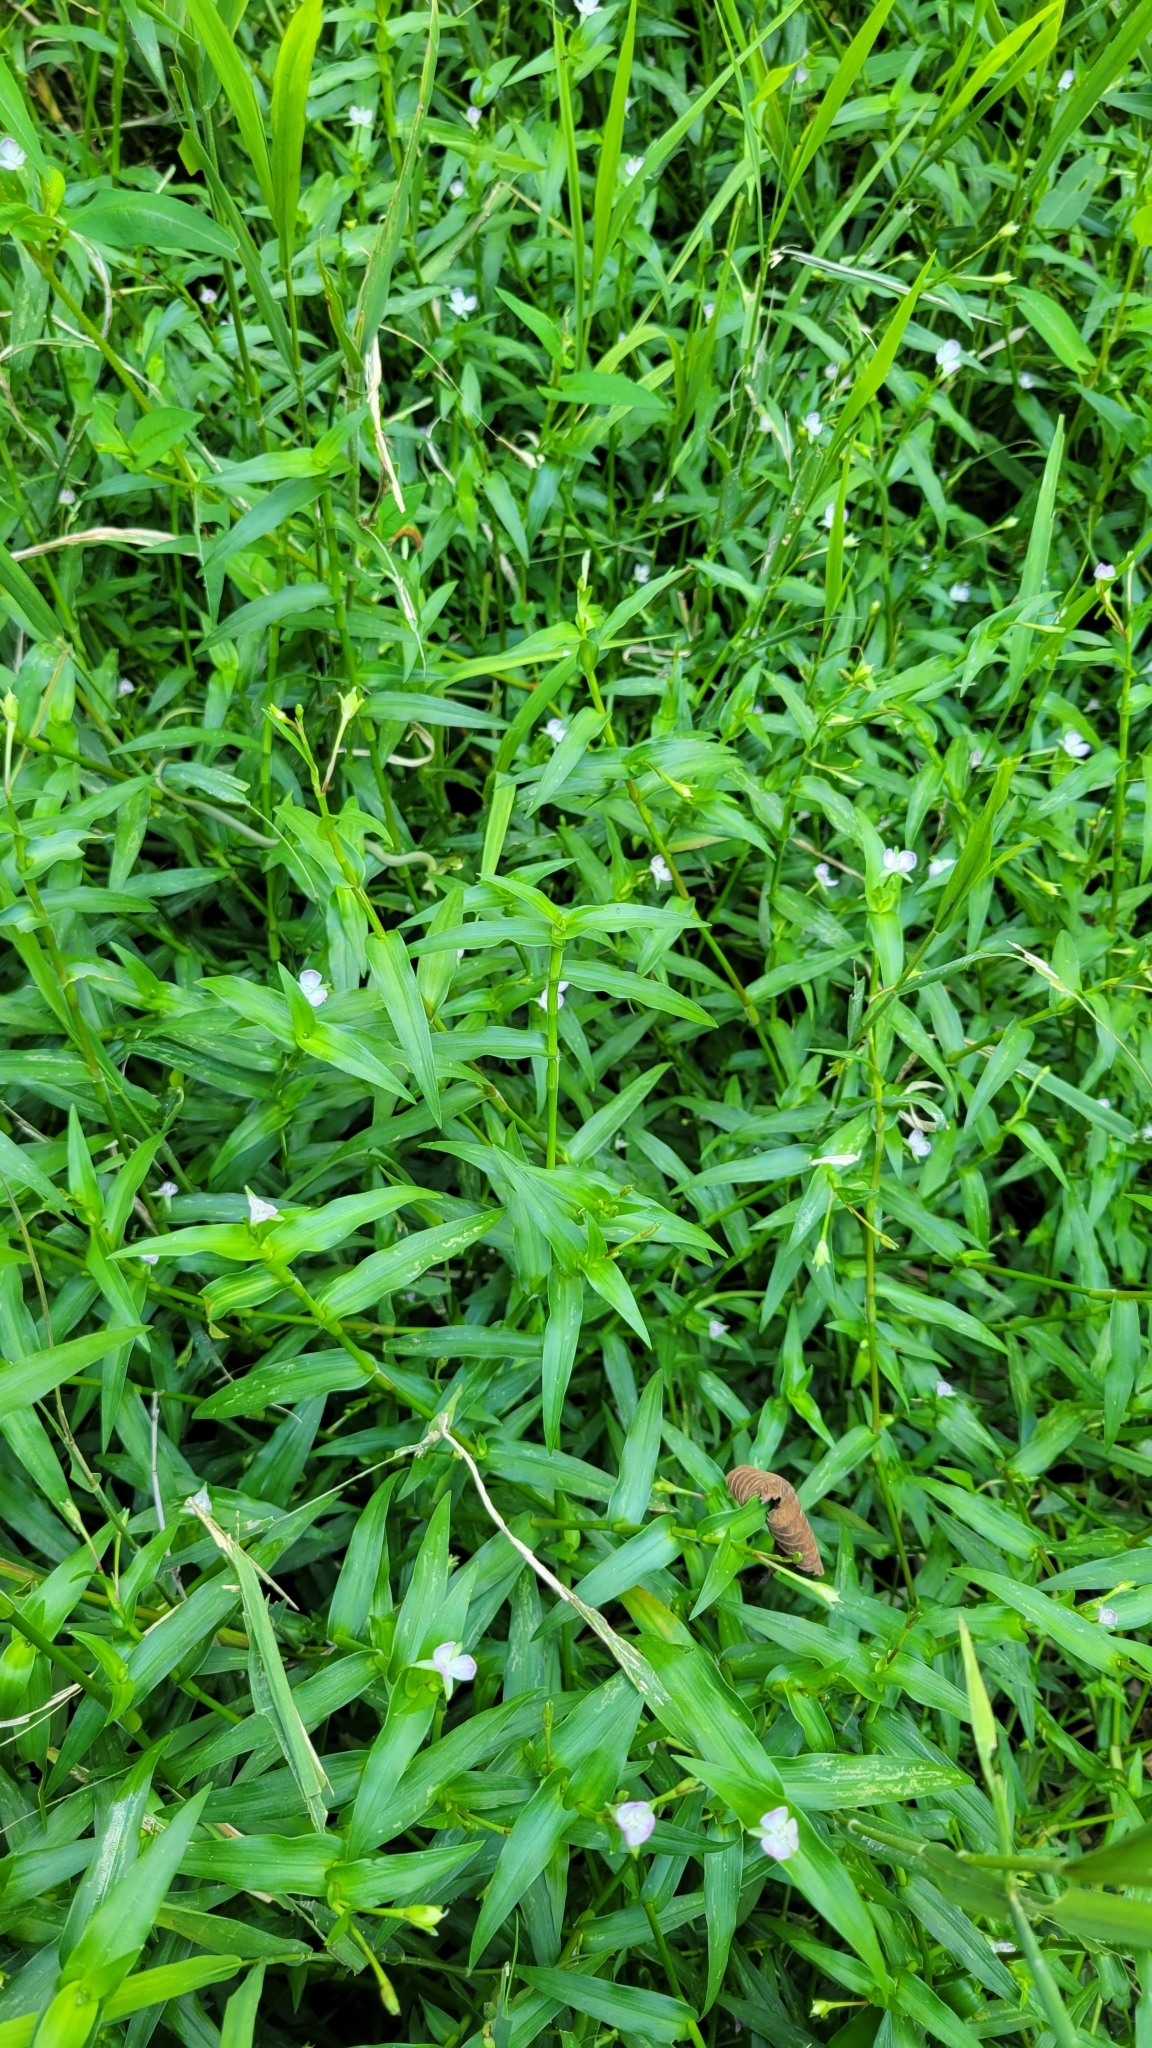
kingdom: Plantae
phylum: Tracheophyta
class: Liliopsida
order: Commelinales
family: Commelinaceae
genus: Murdannia
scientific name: Murdannia keisak
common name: Wartremoving herb
